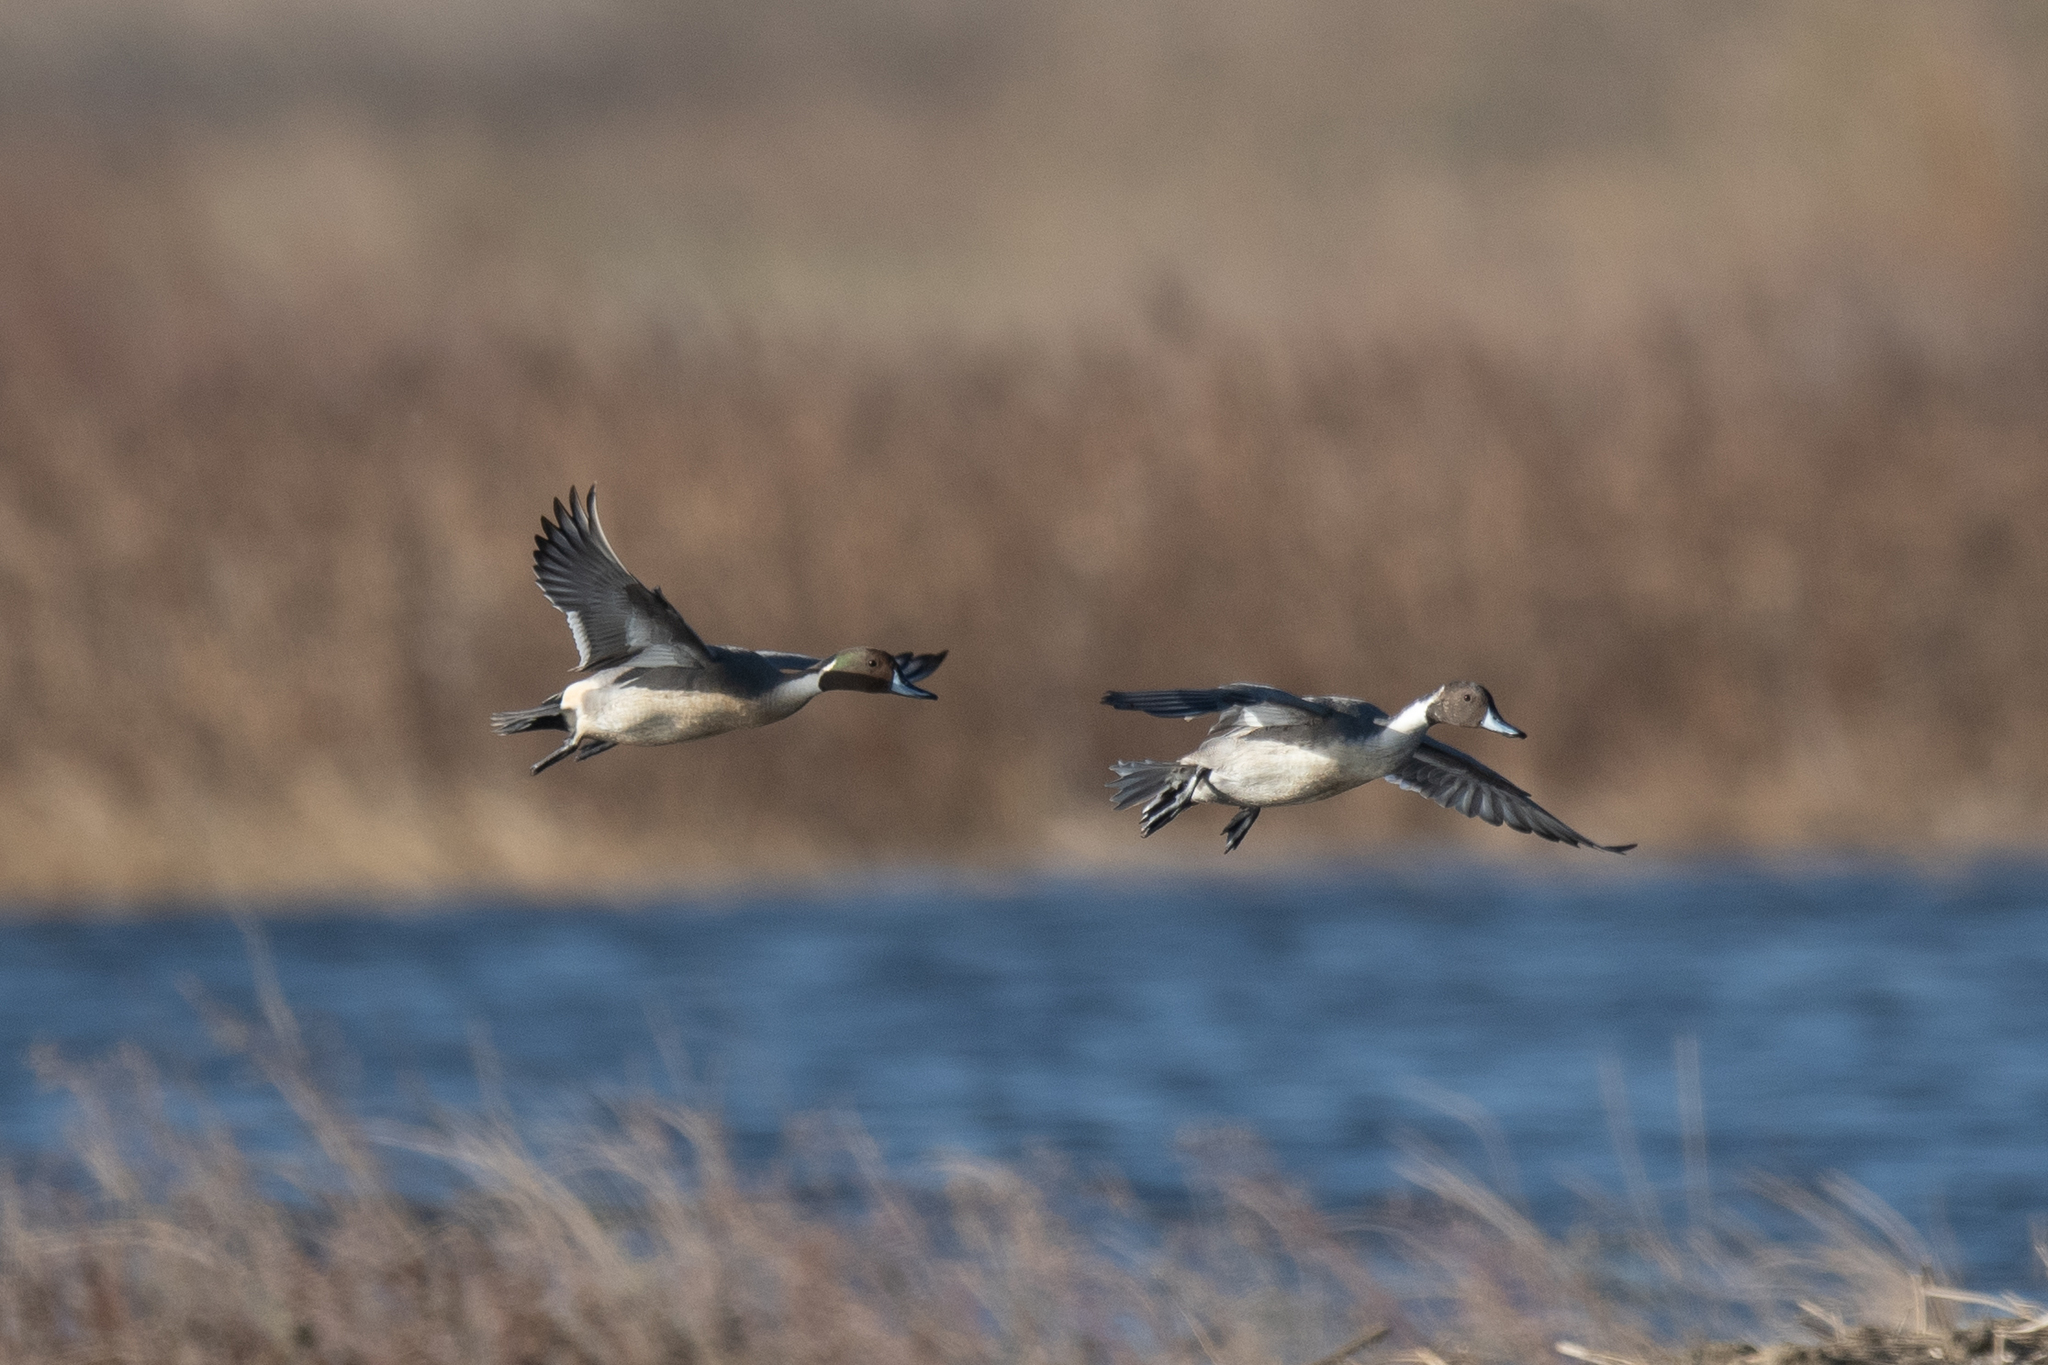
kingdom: Animalia
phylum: Chordata
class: Aves
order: Anseriformes
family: Anatidae
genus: Anas
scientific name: Anas acuta
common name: Northern pintail
